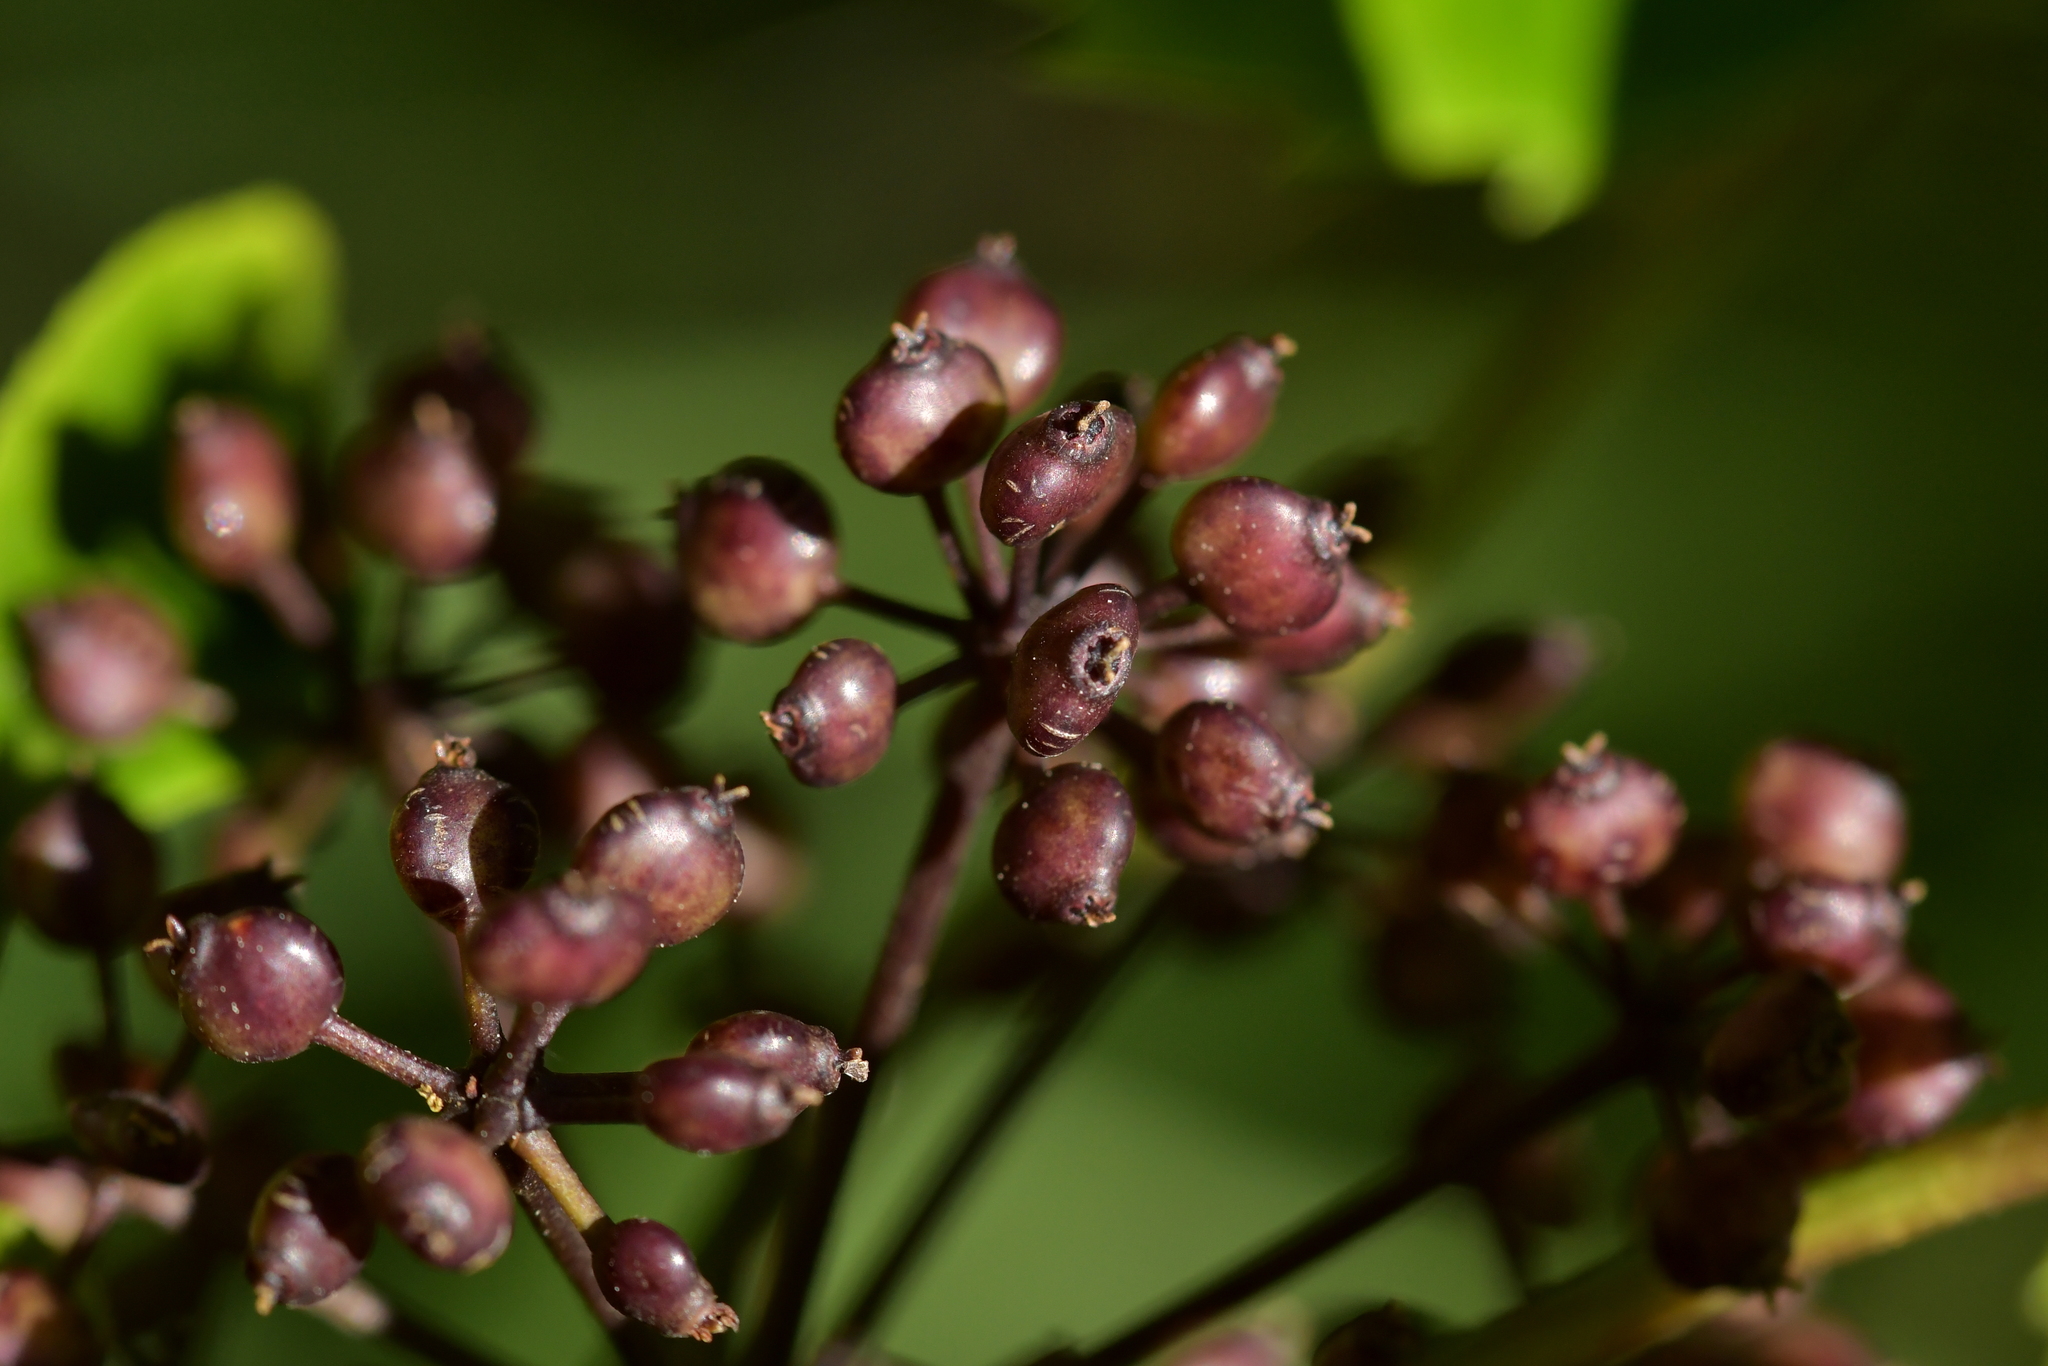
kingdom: Plantae
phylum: Tracheophyta
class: Magnoliopsida
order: Apiales
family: Araliaceae
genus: Neopanax
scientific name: Neopanax arboreus
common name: Five-fingers
